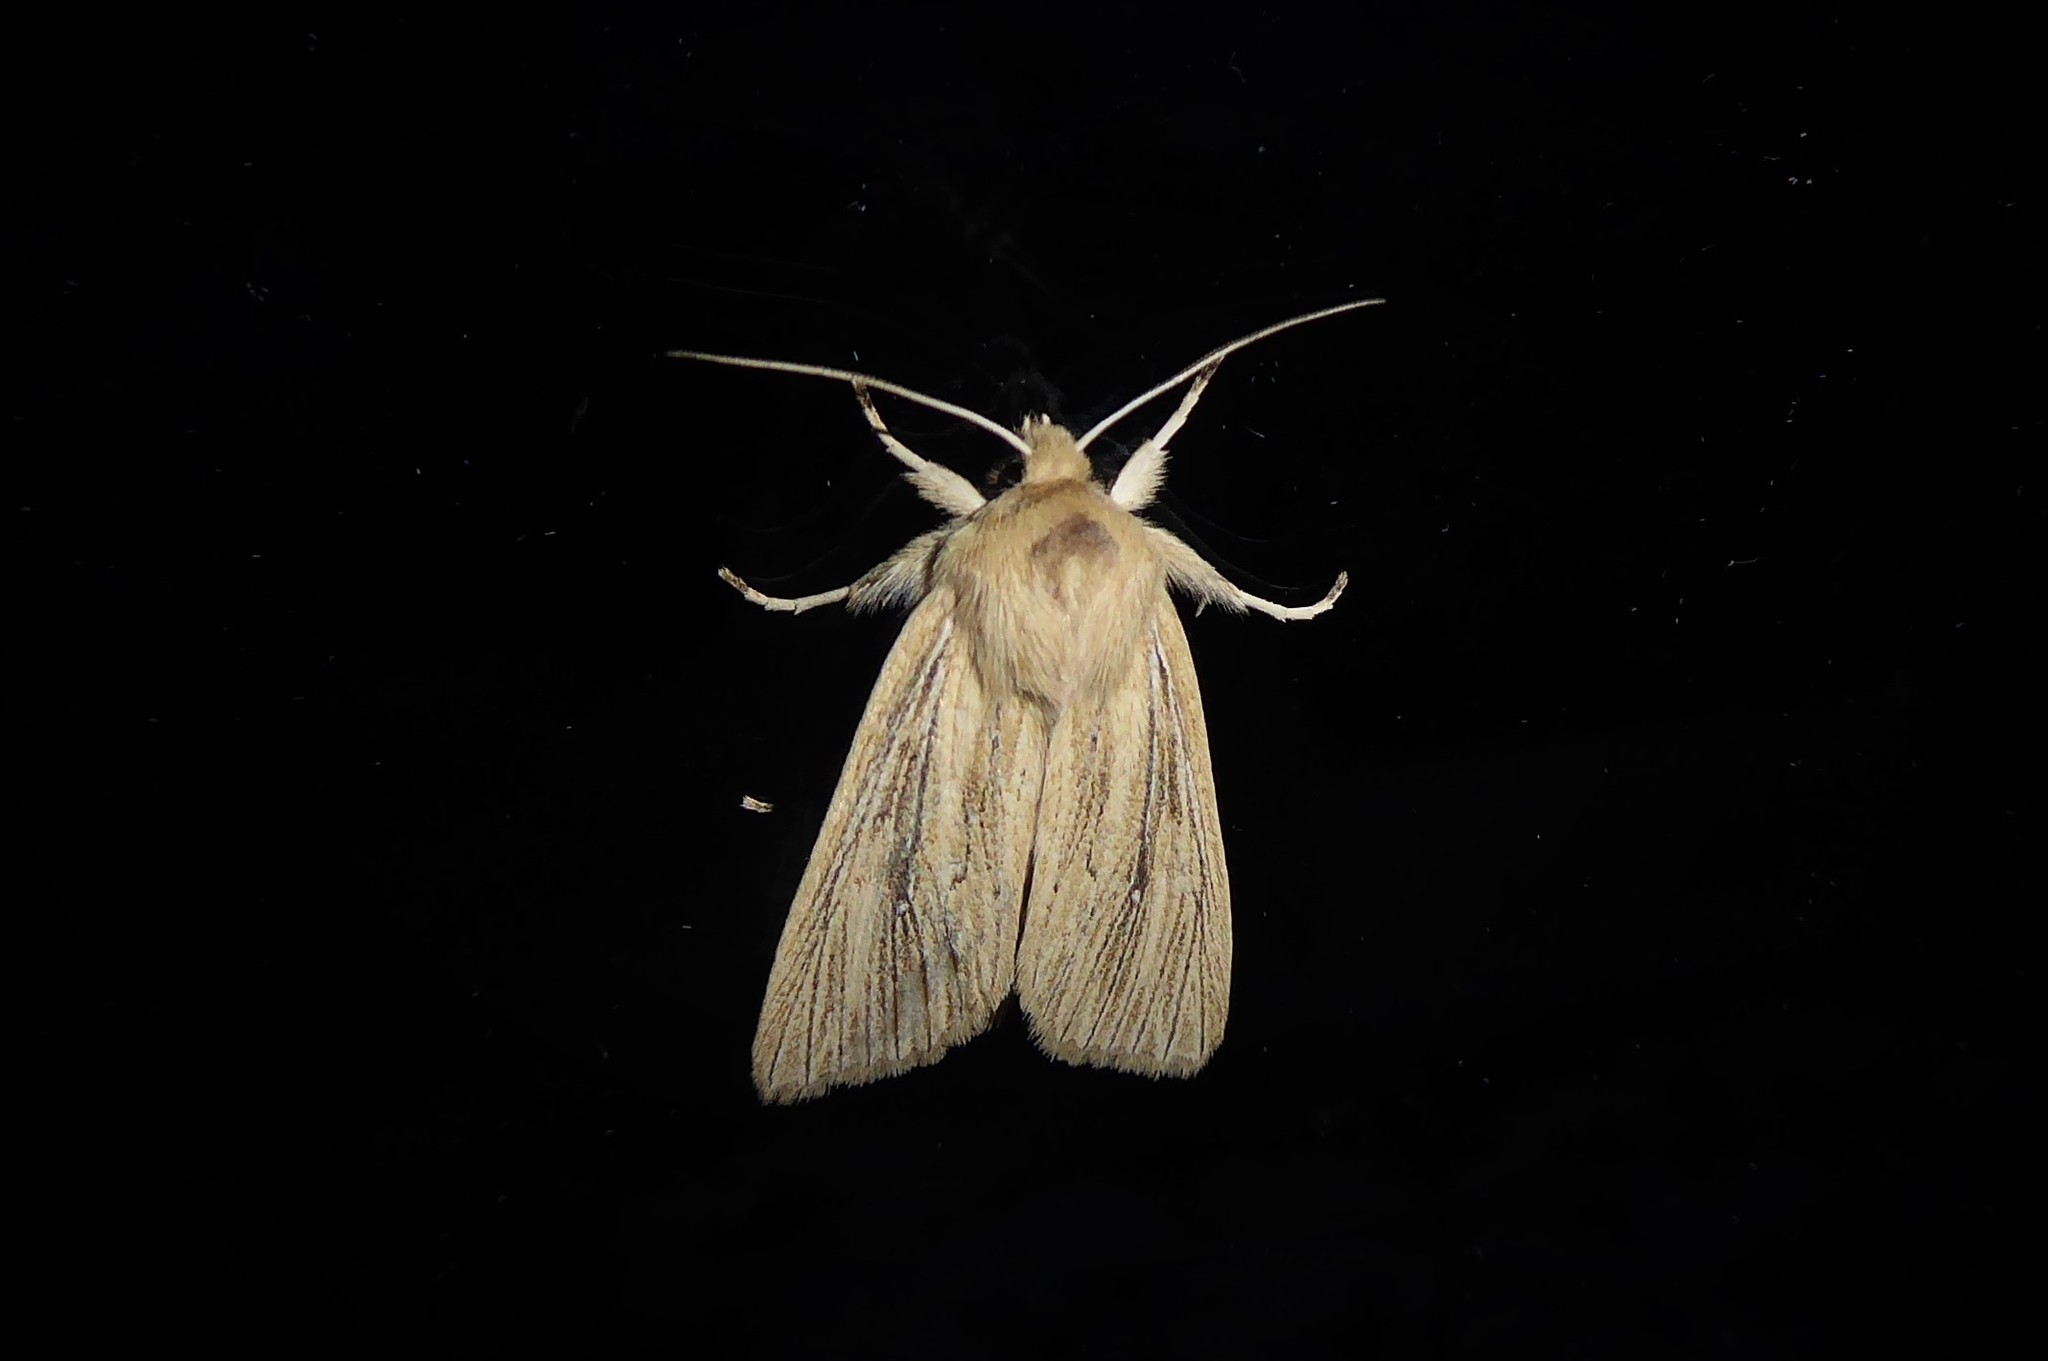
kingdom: Animalia
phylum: Arthropoda
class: Insecta
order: Lepidoptera
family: Noctuidae
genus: Ichneutica
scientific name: Ichneutica arotis
